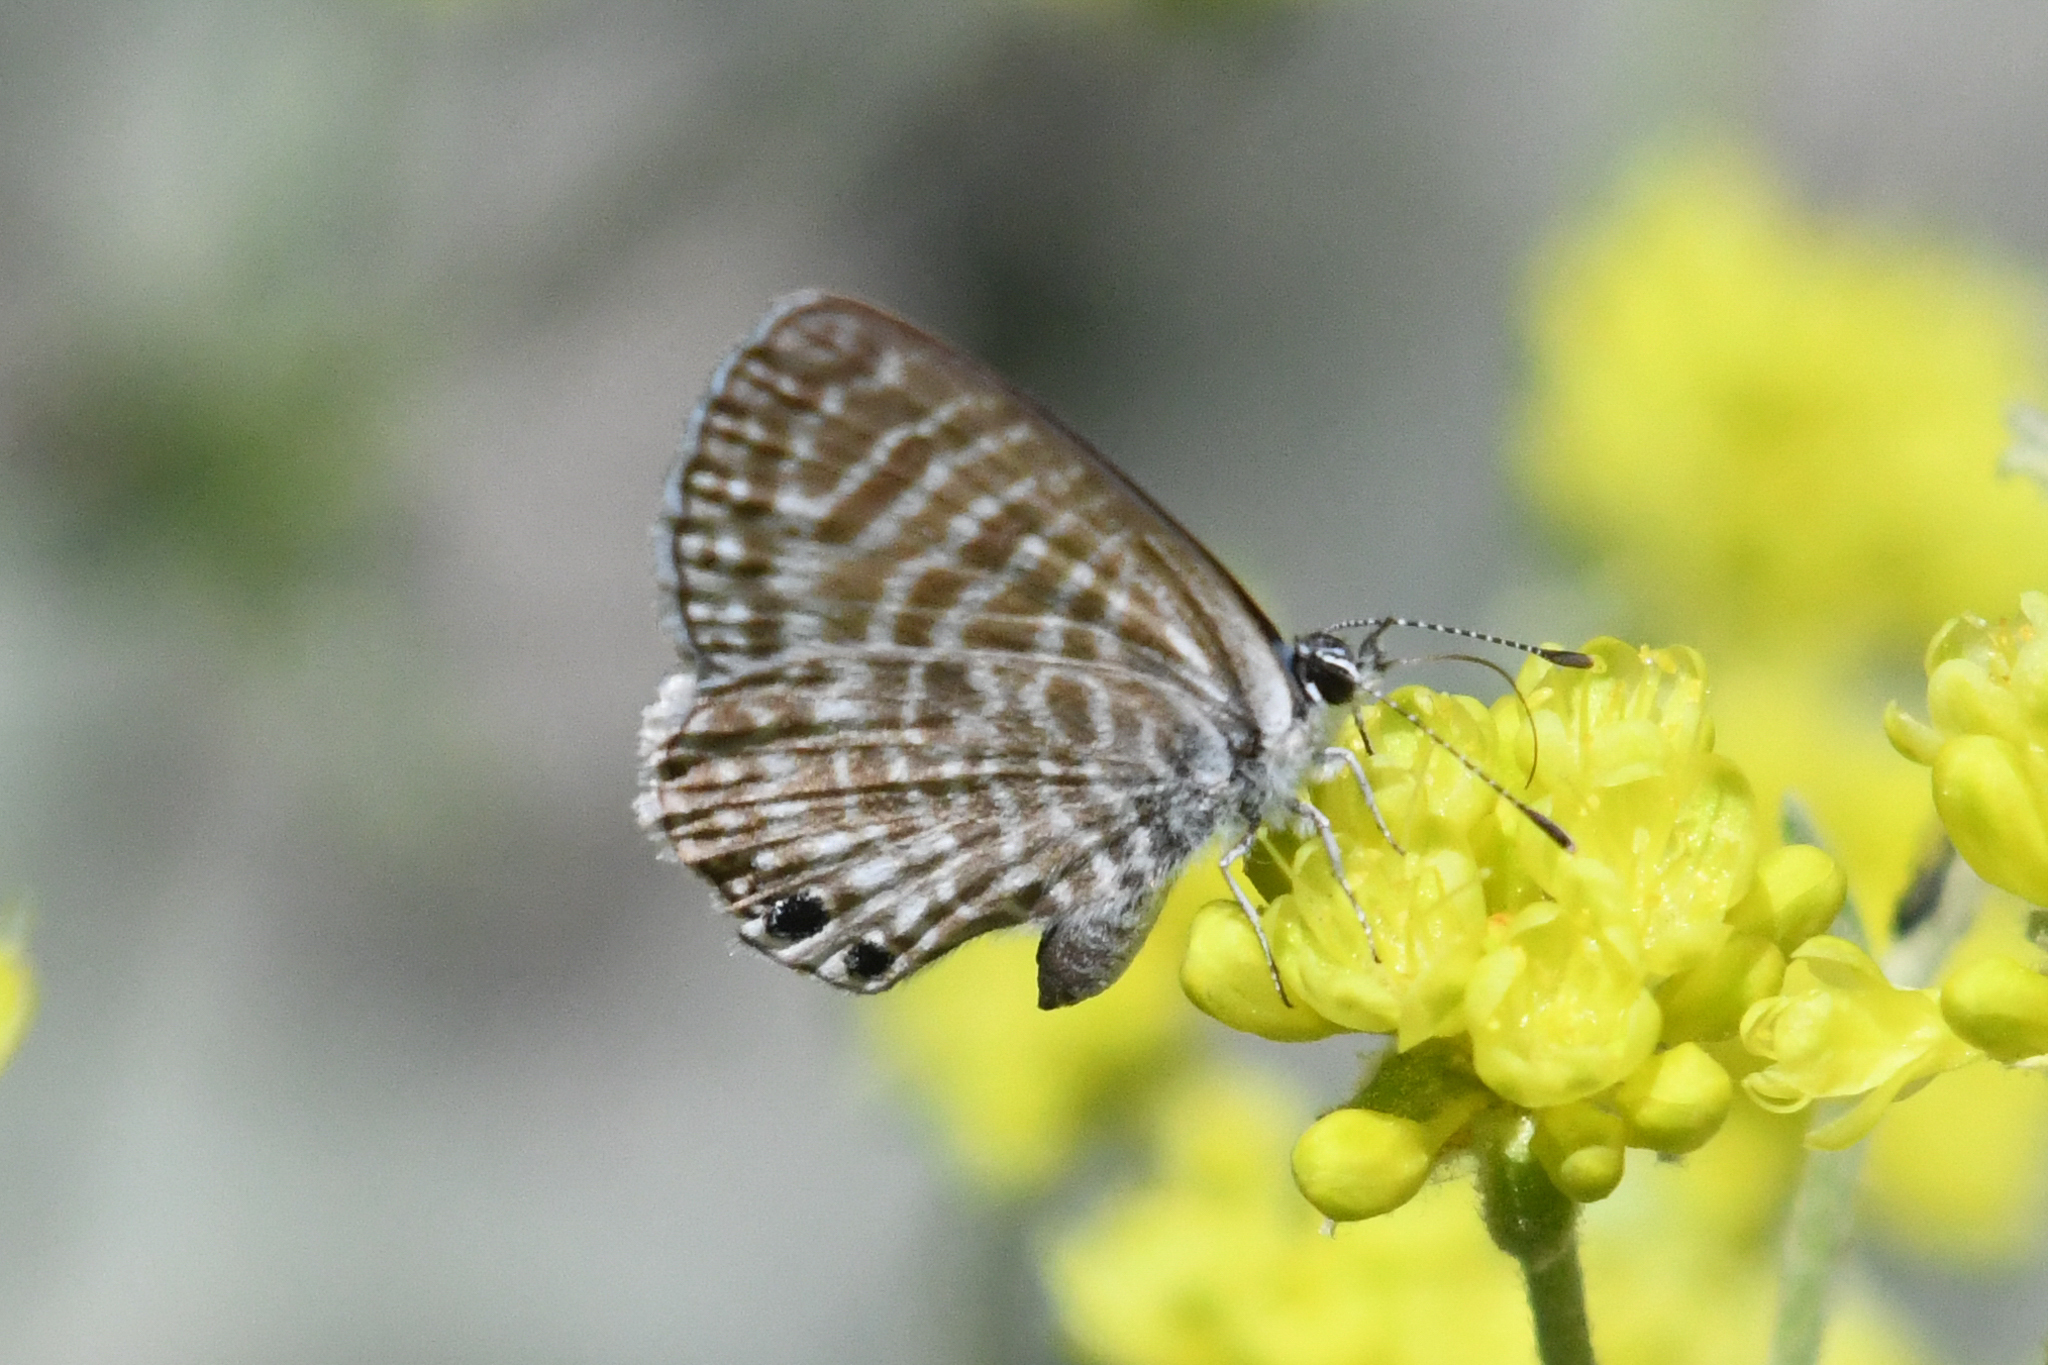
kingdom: Animalia
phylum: Arthropoda
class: Insecta
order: Lepidoptera
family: Lycaenidae
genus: Leptotes
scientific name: Leptotes marina
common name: Marine blue
